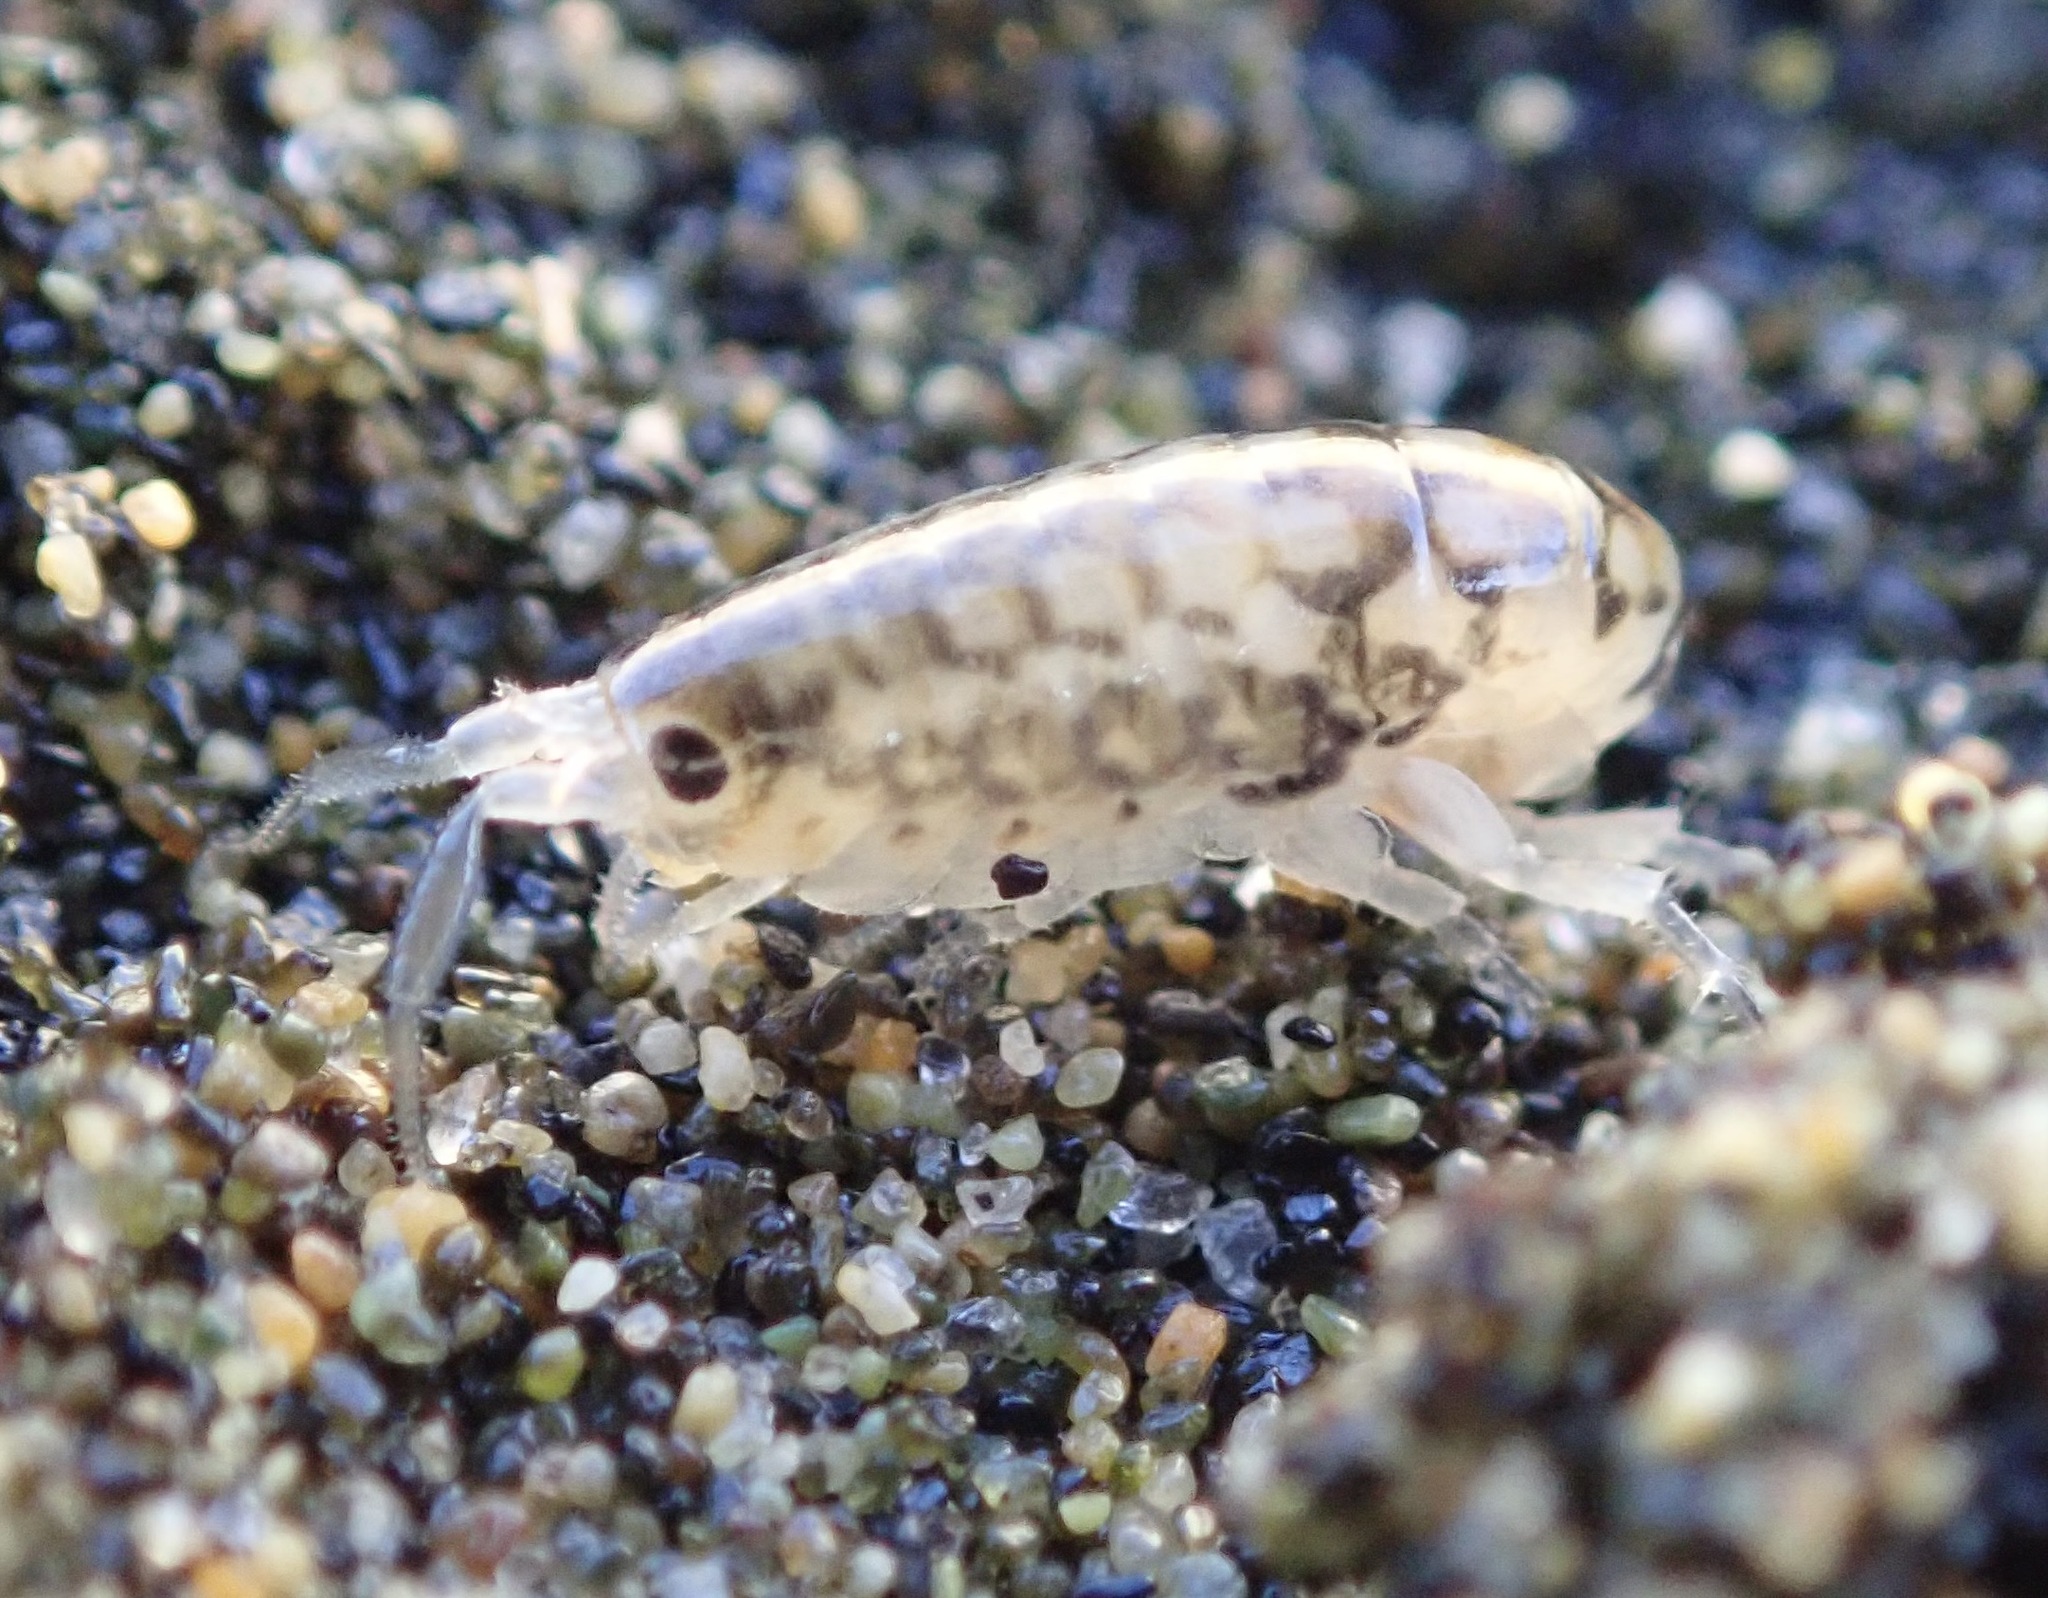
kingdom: Animalia
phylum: Arthropoda
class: Malacostraca
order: Amphipoda
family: Talitridae
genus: Megalorchestia
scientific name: Megalorchestia benedicti
